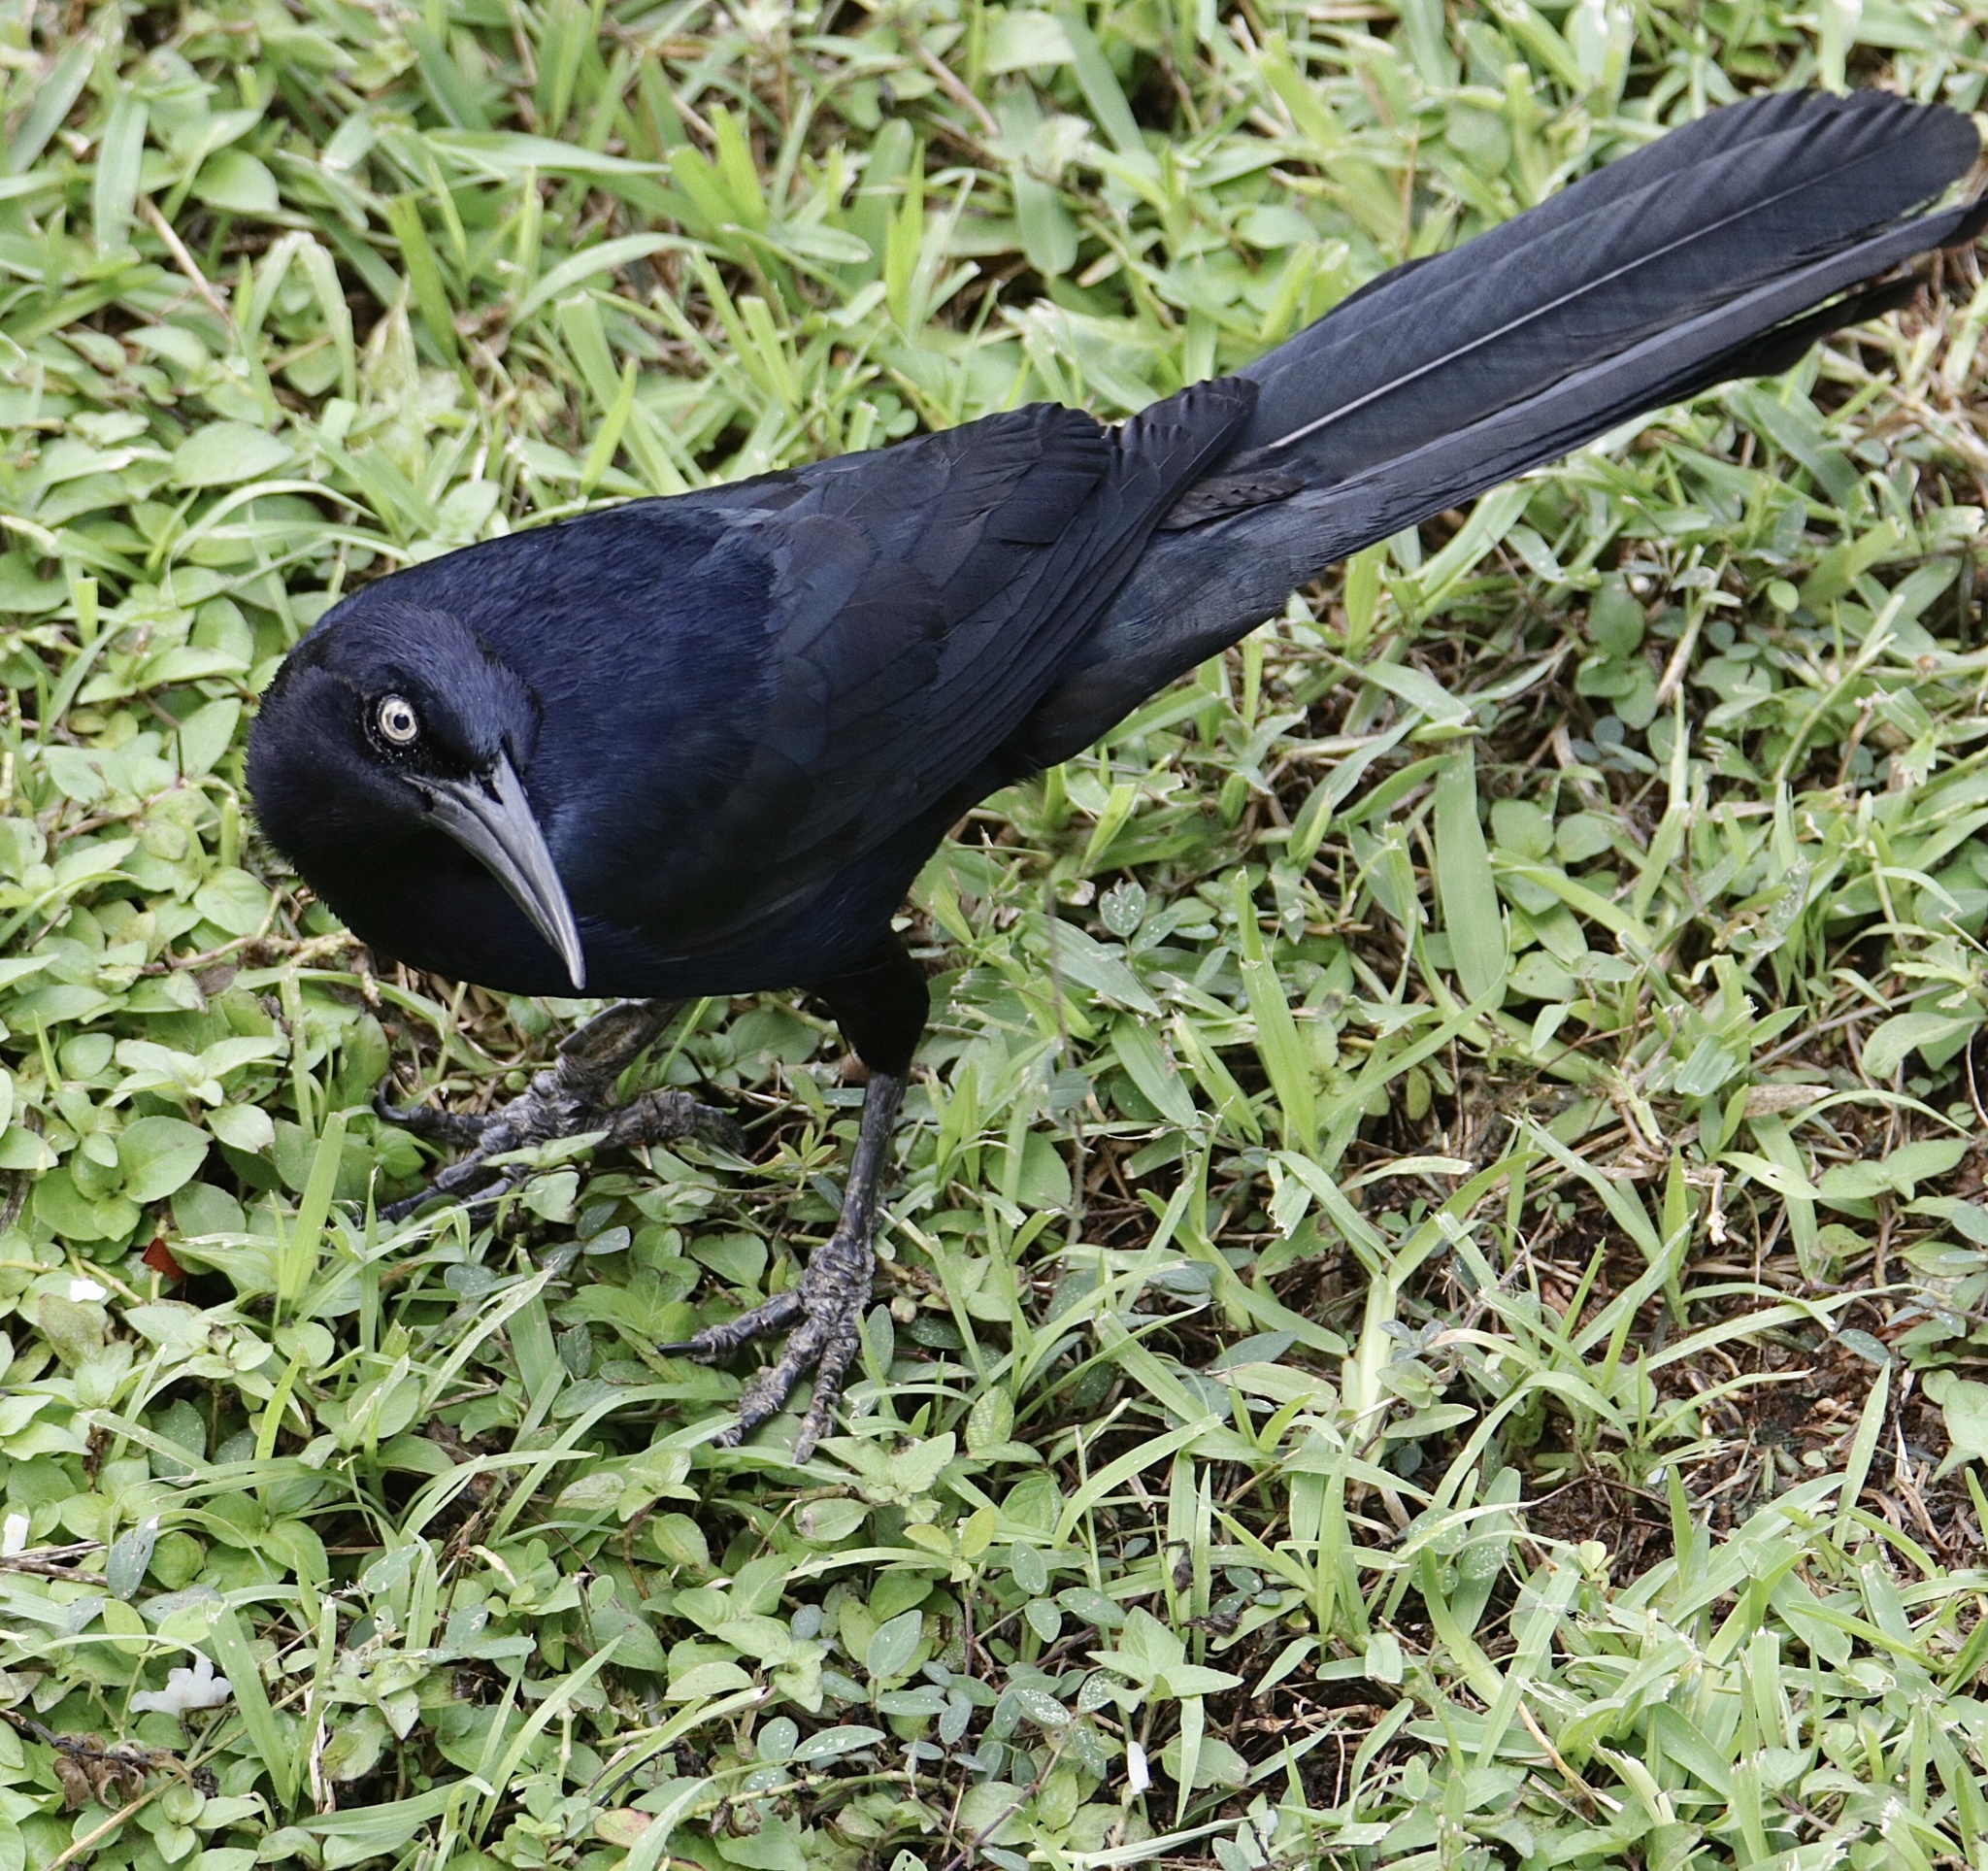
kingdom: Animalia
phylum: Chordata
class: Aves
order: Passeriformes
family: Icteridae
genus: Quiscalus
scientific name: Quiscalus mexicanus
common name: Great-tailed grackle
